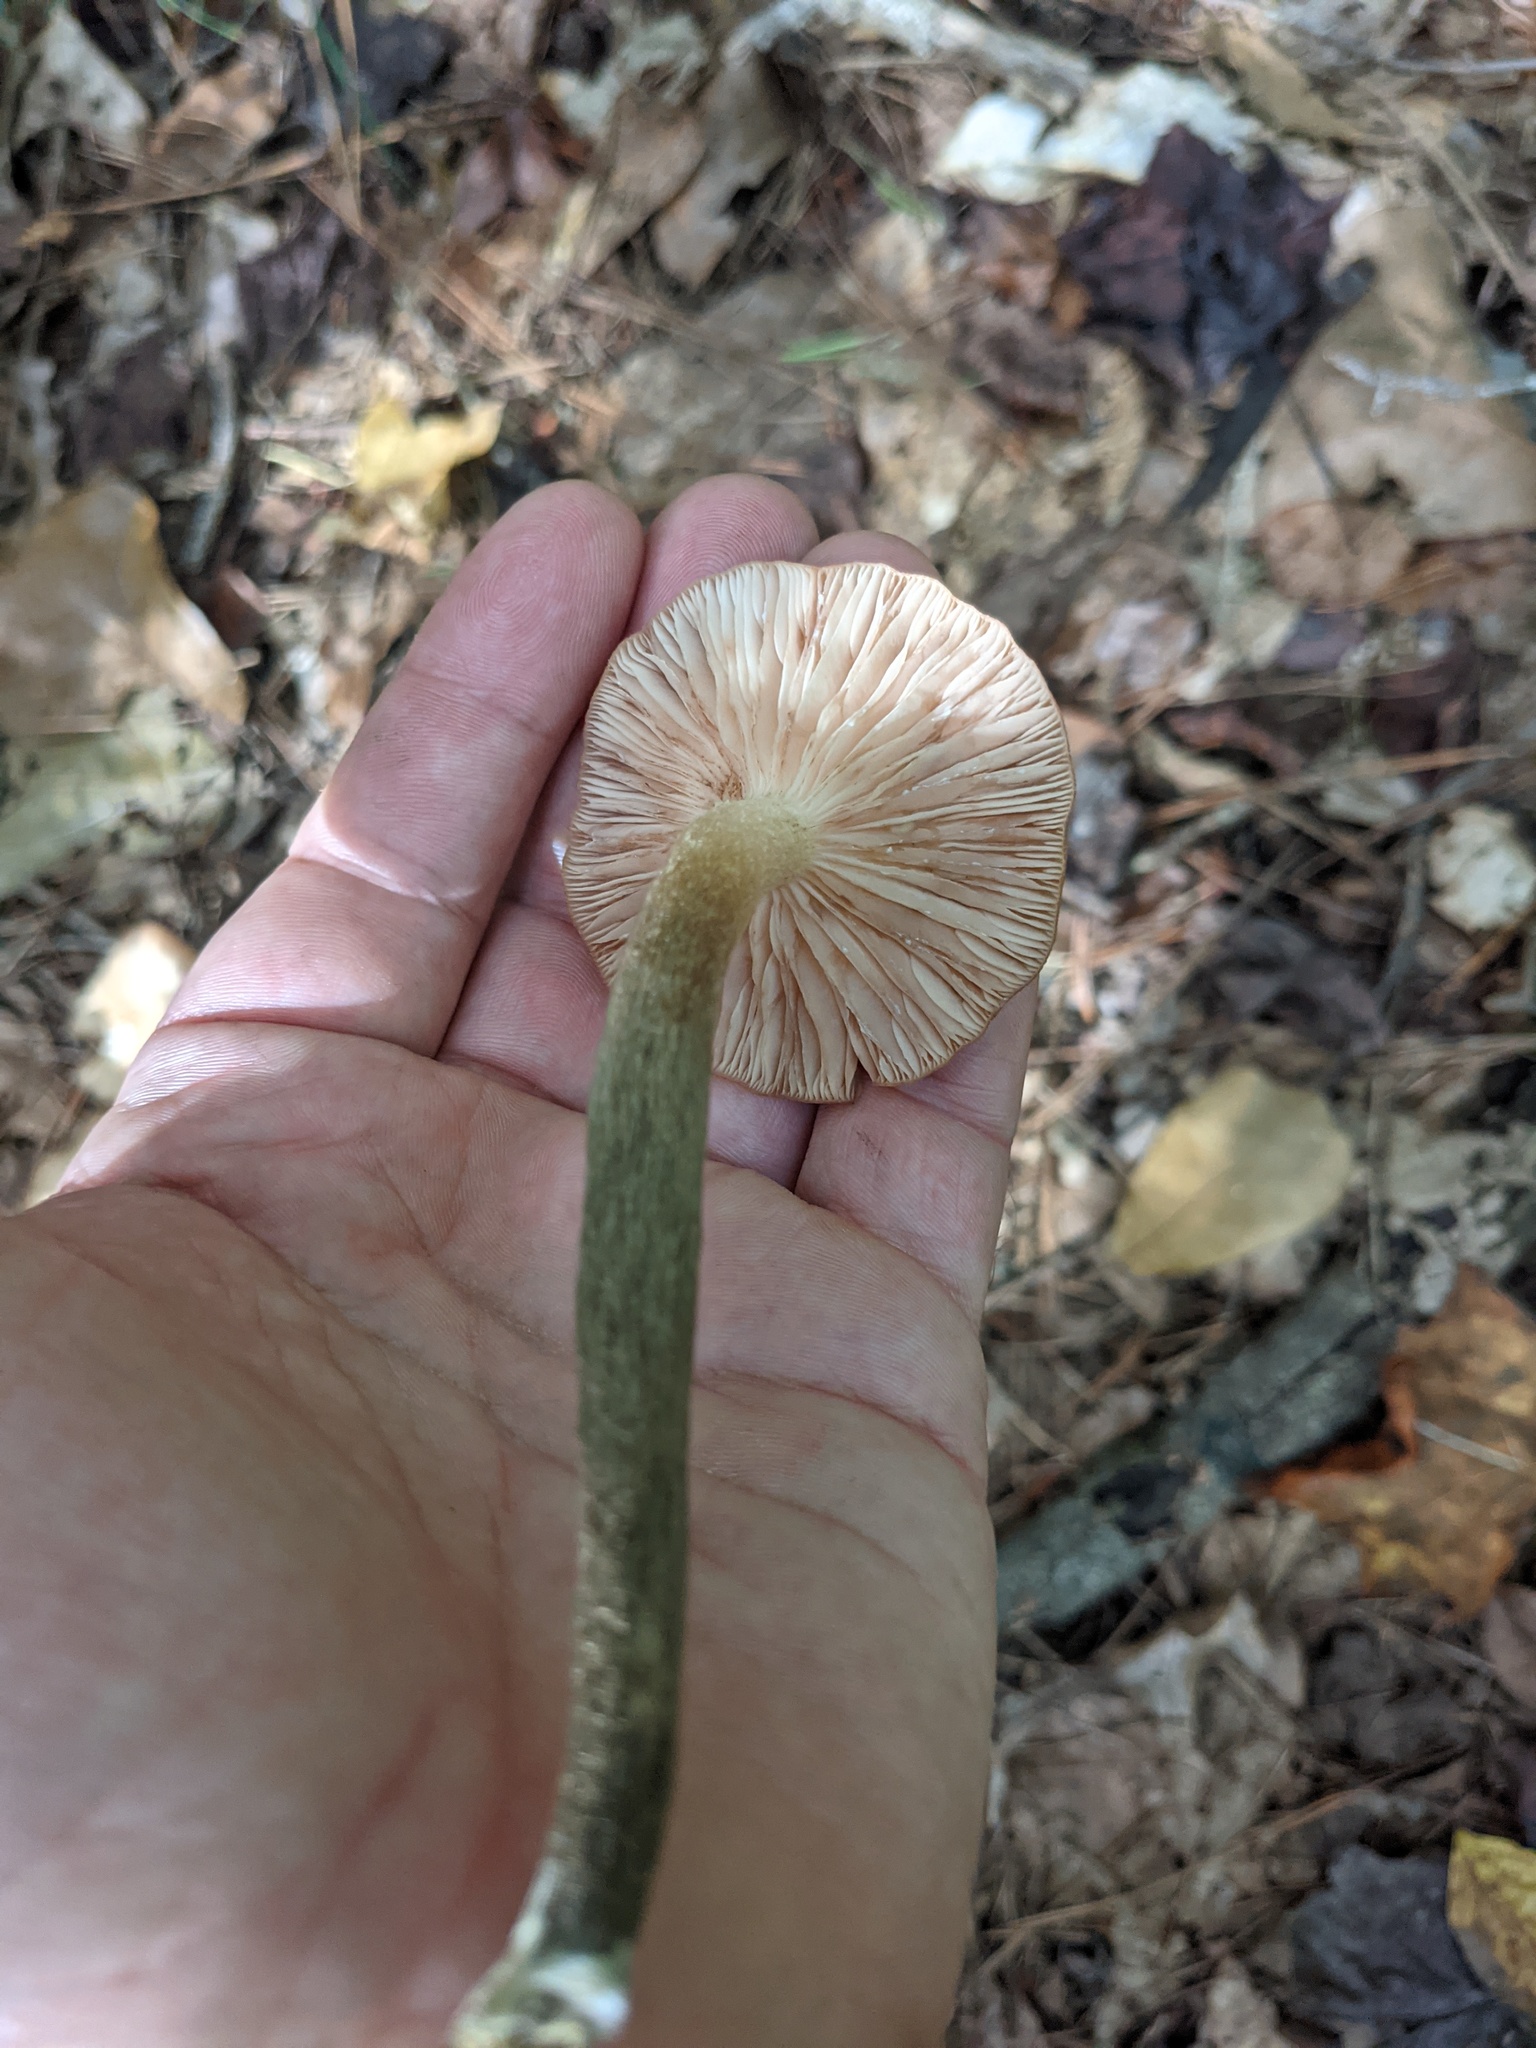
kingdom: Fungi
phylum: Basidiomycota
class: Agaricomycetes
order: Agaricales
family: Physalacriaceae
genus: Desarmillaria
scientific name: Desarmillaria caespitosa
